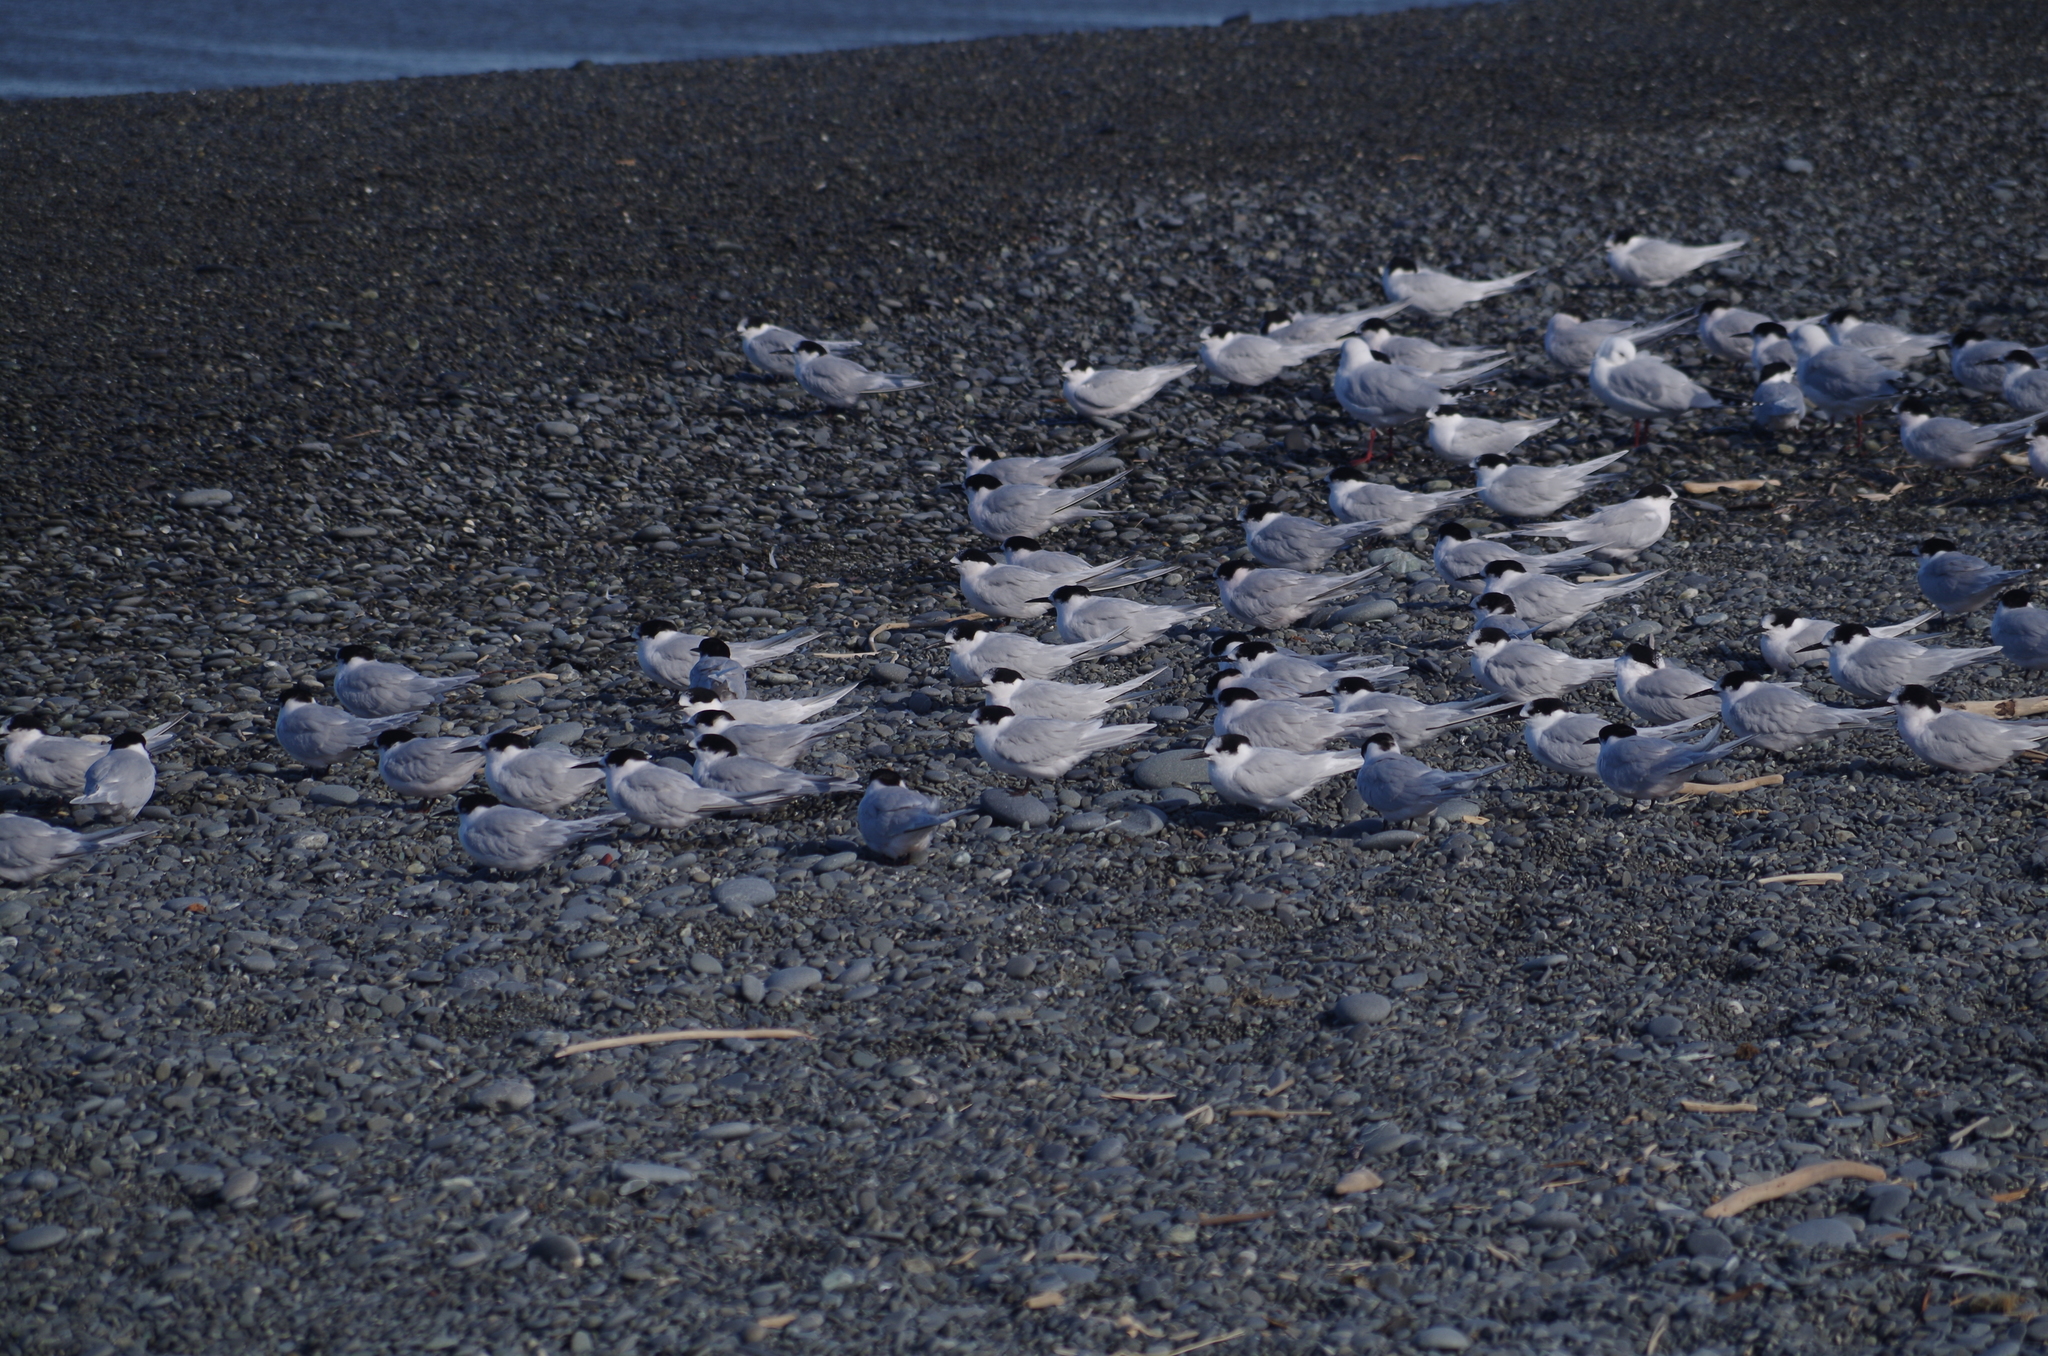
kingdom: Animalia
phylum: Chordata
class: Aves
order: Charadriiformes
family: Laridae
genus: Sterna
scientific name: Sterna striata
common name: White-fronted tern
